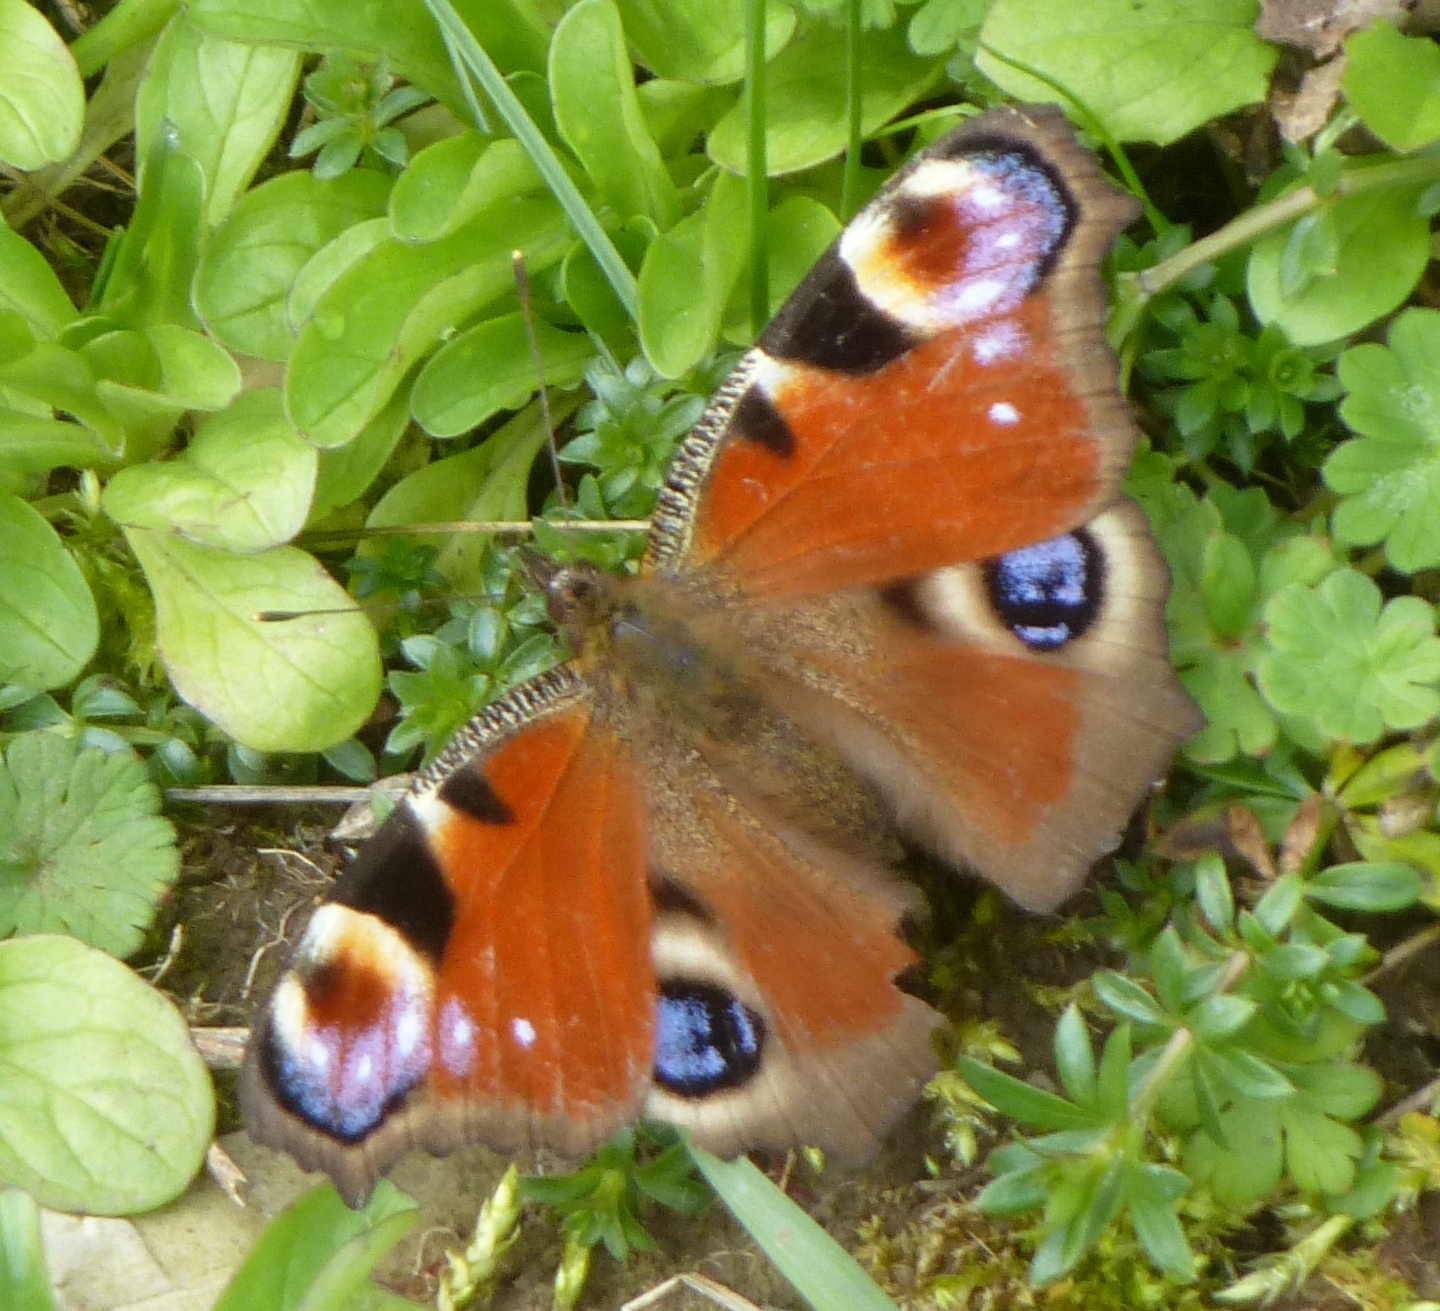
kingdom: Animalia
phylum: Arthropoda
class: Insecta
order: Lepidoptera
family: Nymphalidae
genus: Aglais
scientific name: Aglais io
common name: Peacock
